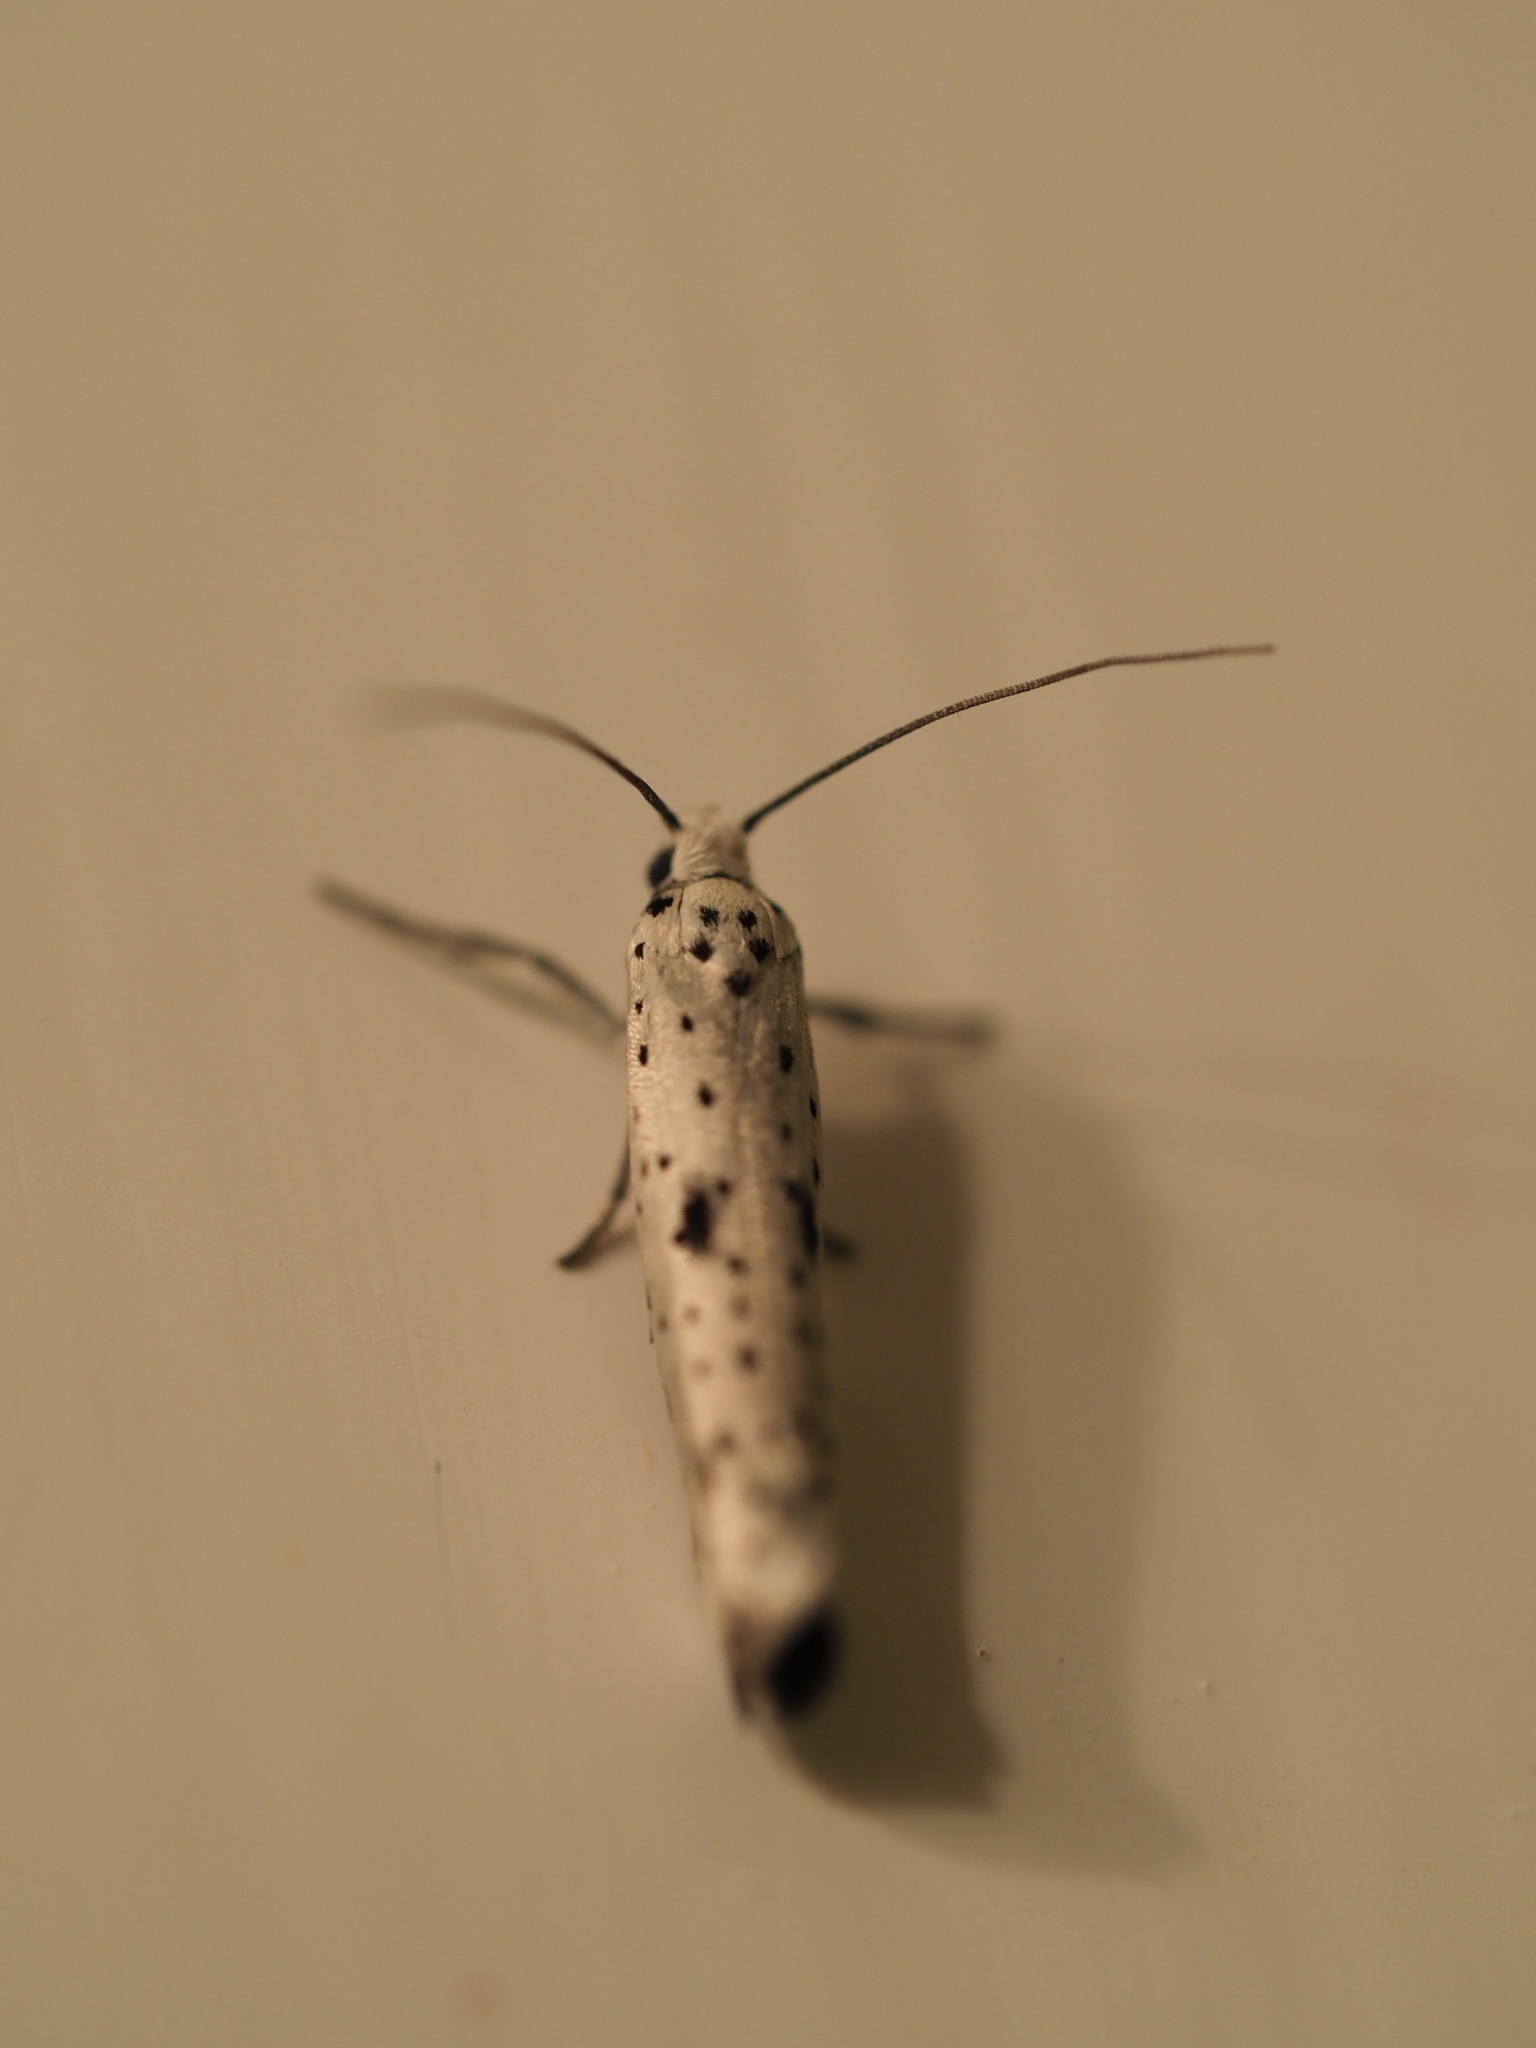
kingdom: Animalia
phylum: Arthropoda
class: Insecta
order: Lepidoptera
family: Yponomeutidae
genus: Yponomeuta
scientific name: Yponomeuta plumbella
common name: Black-tipped ermine
